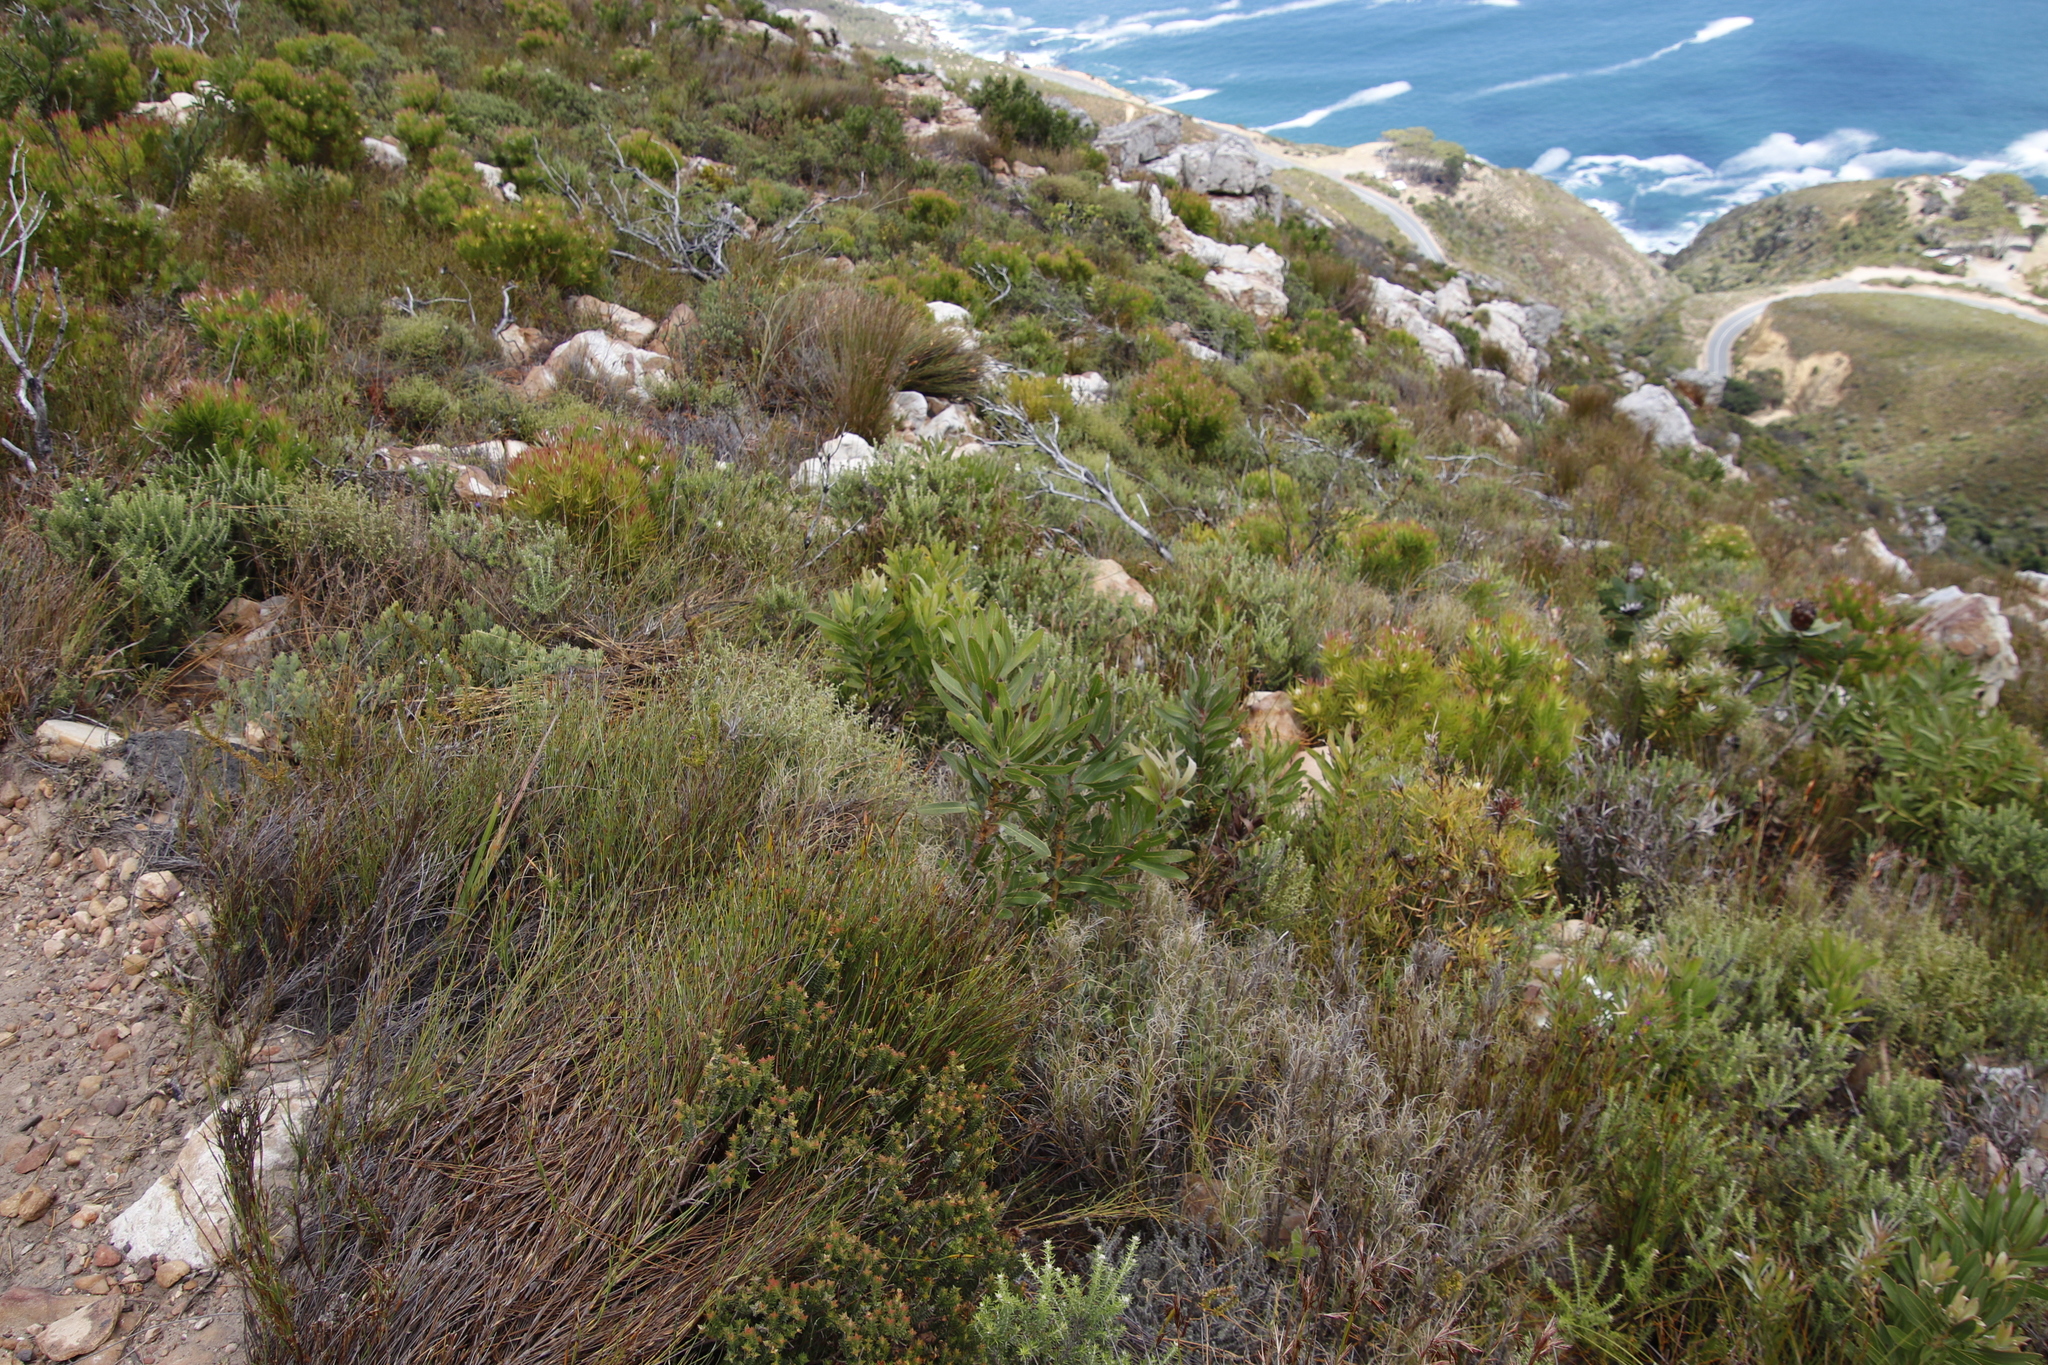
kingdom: Plantae
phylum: Tracheophyta
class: Magnoliopsida
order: Proteales
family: Proteaceae
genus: Protea
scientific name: Protea lepidocarpodendron
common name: Black-bearded protea
